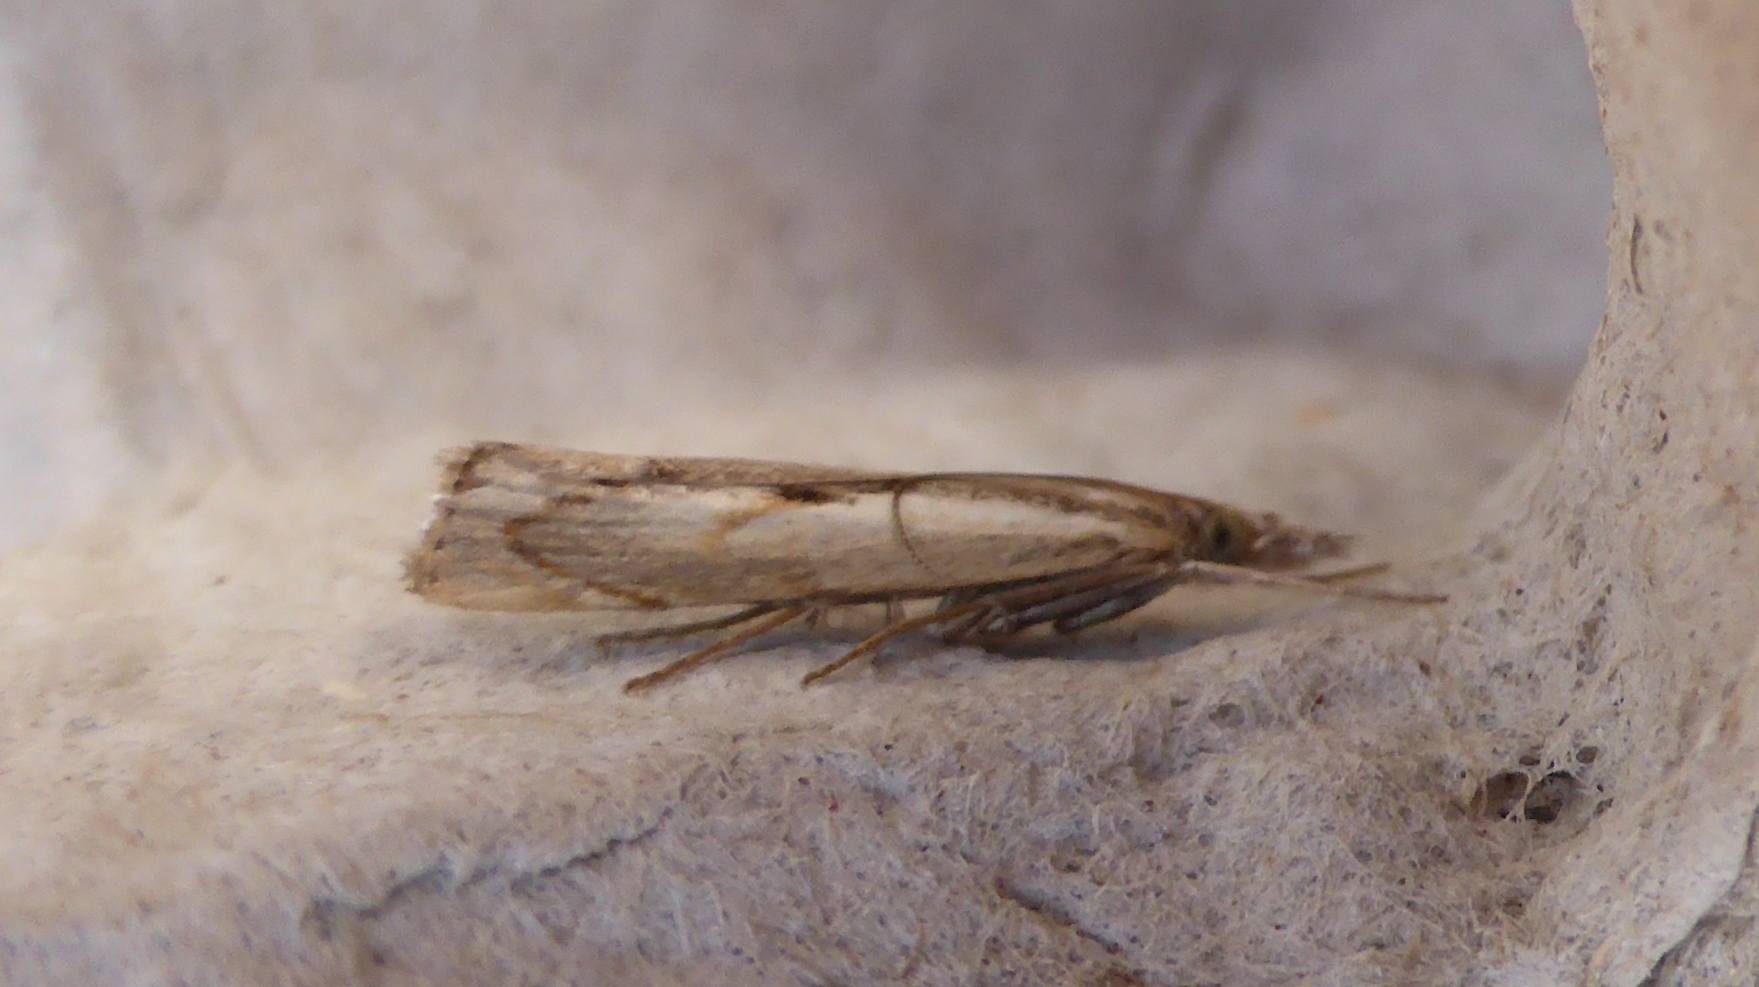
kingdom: Animalia
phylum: Arthropoda
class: Insecta
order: Lepidoptera
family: Crambidae
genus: Agriphila
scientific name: Agriphila geniculea
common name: Elbow-stripe grass-veneer
